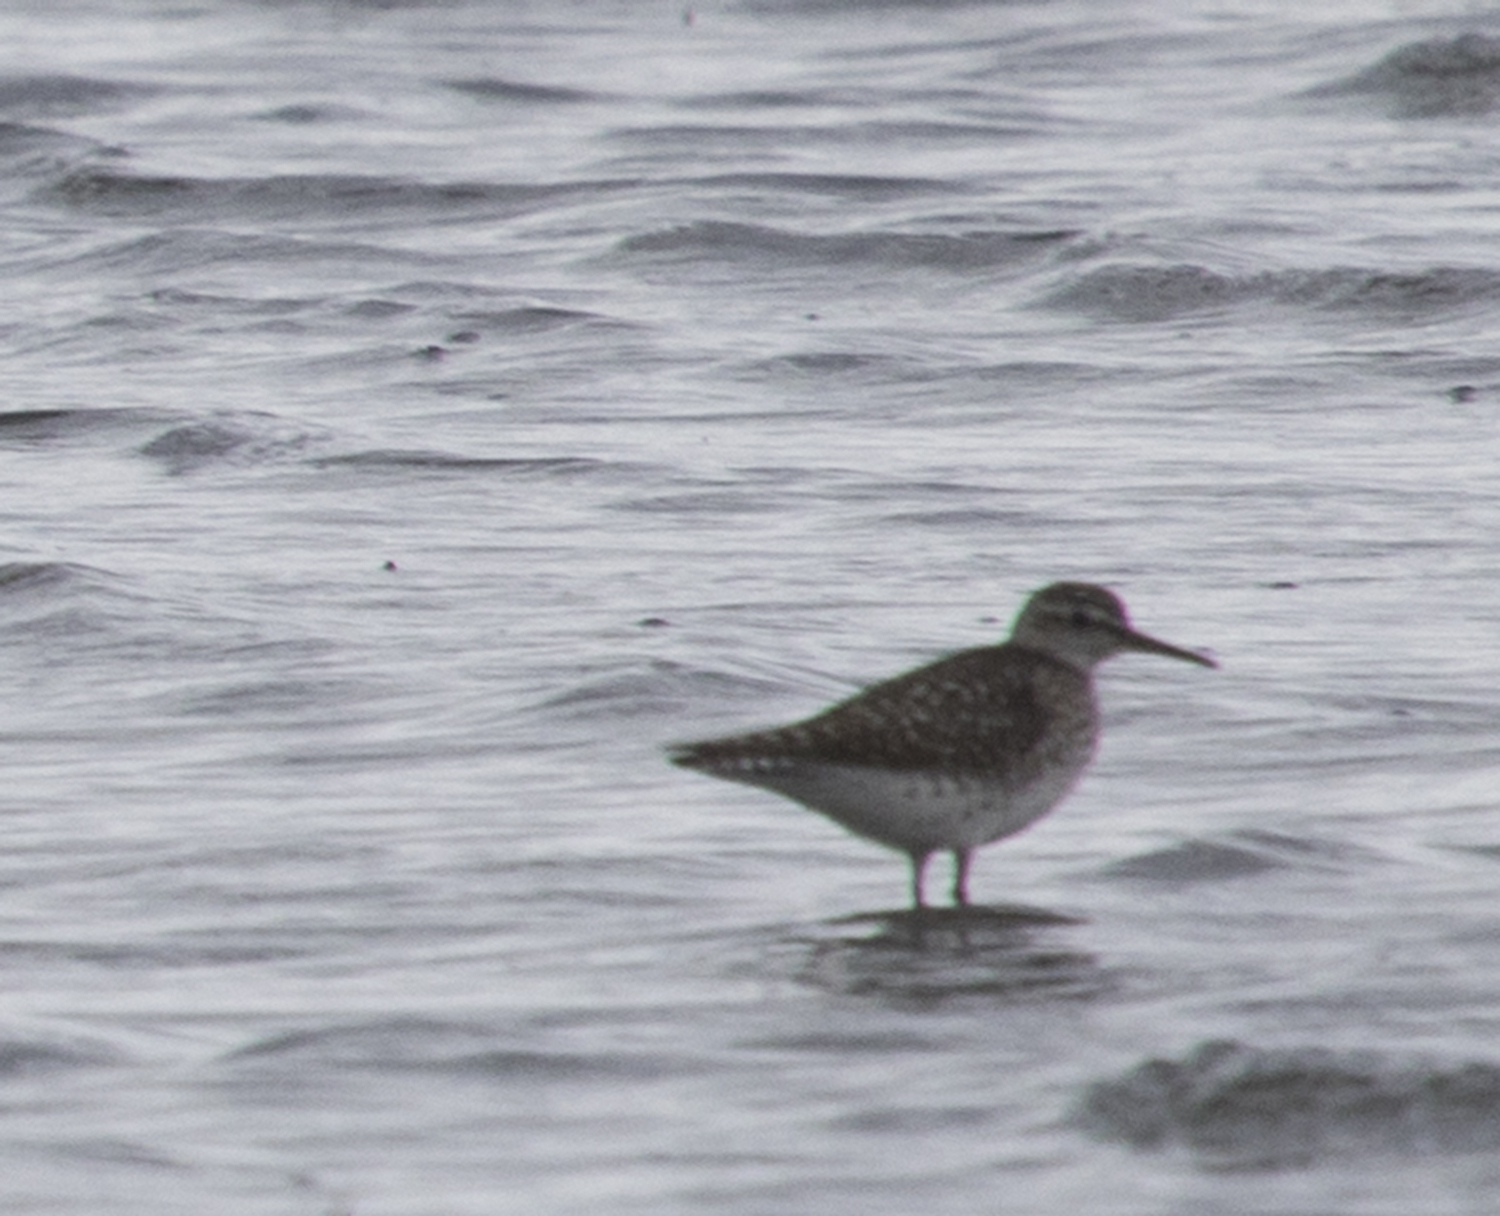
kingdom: Animalia
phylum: Chordata
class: Aves
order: Charadriiformes
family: Scolopacidae
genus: Tringa
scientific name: Tringa glareola
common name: Wood sandpiper
